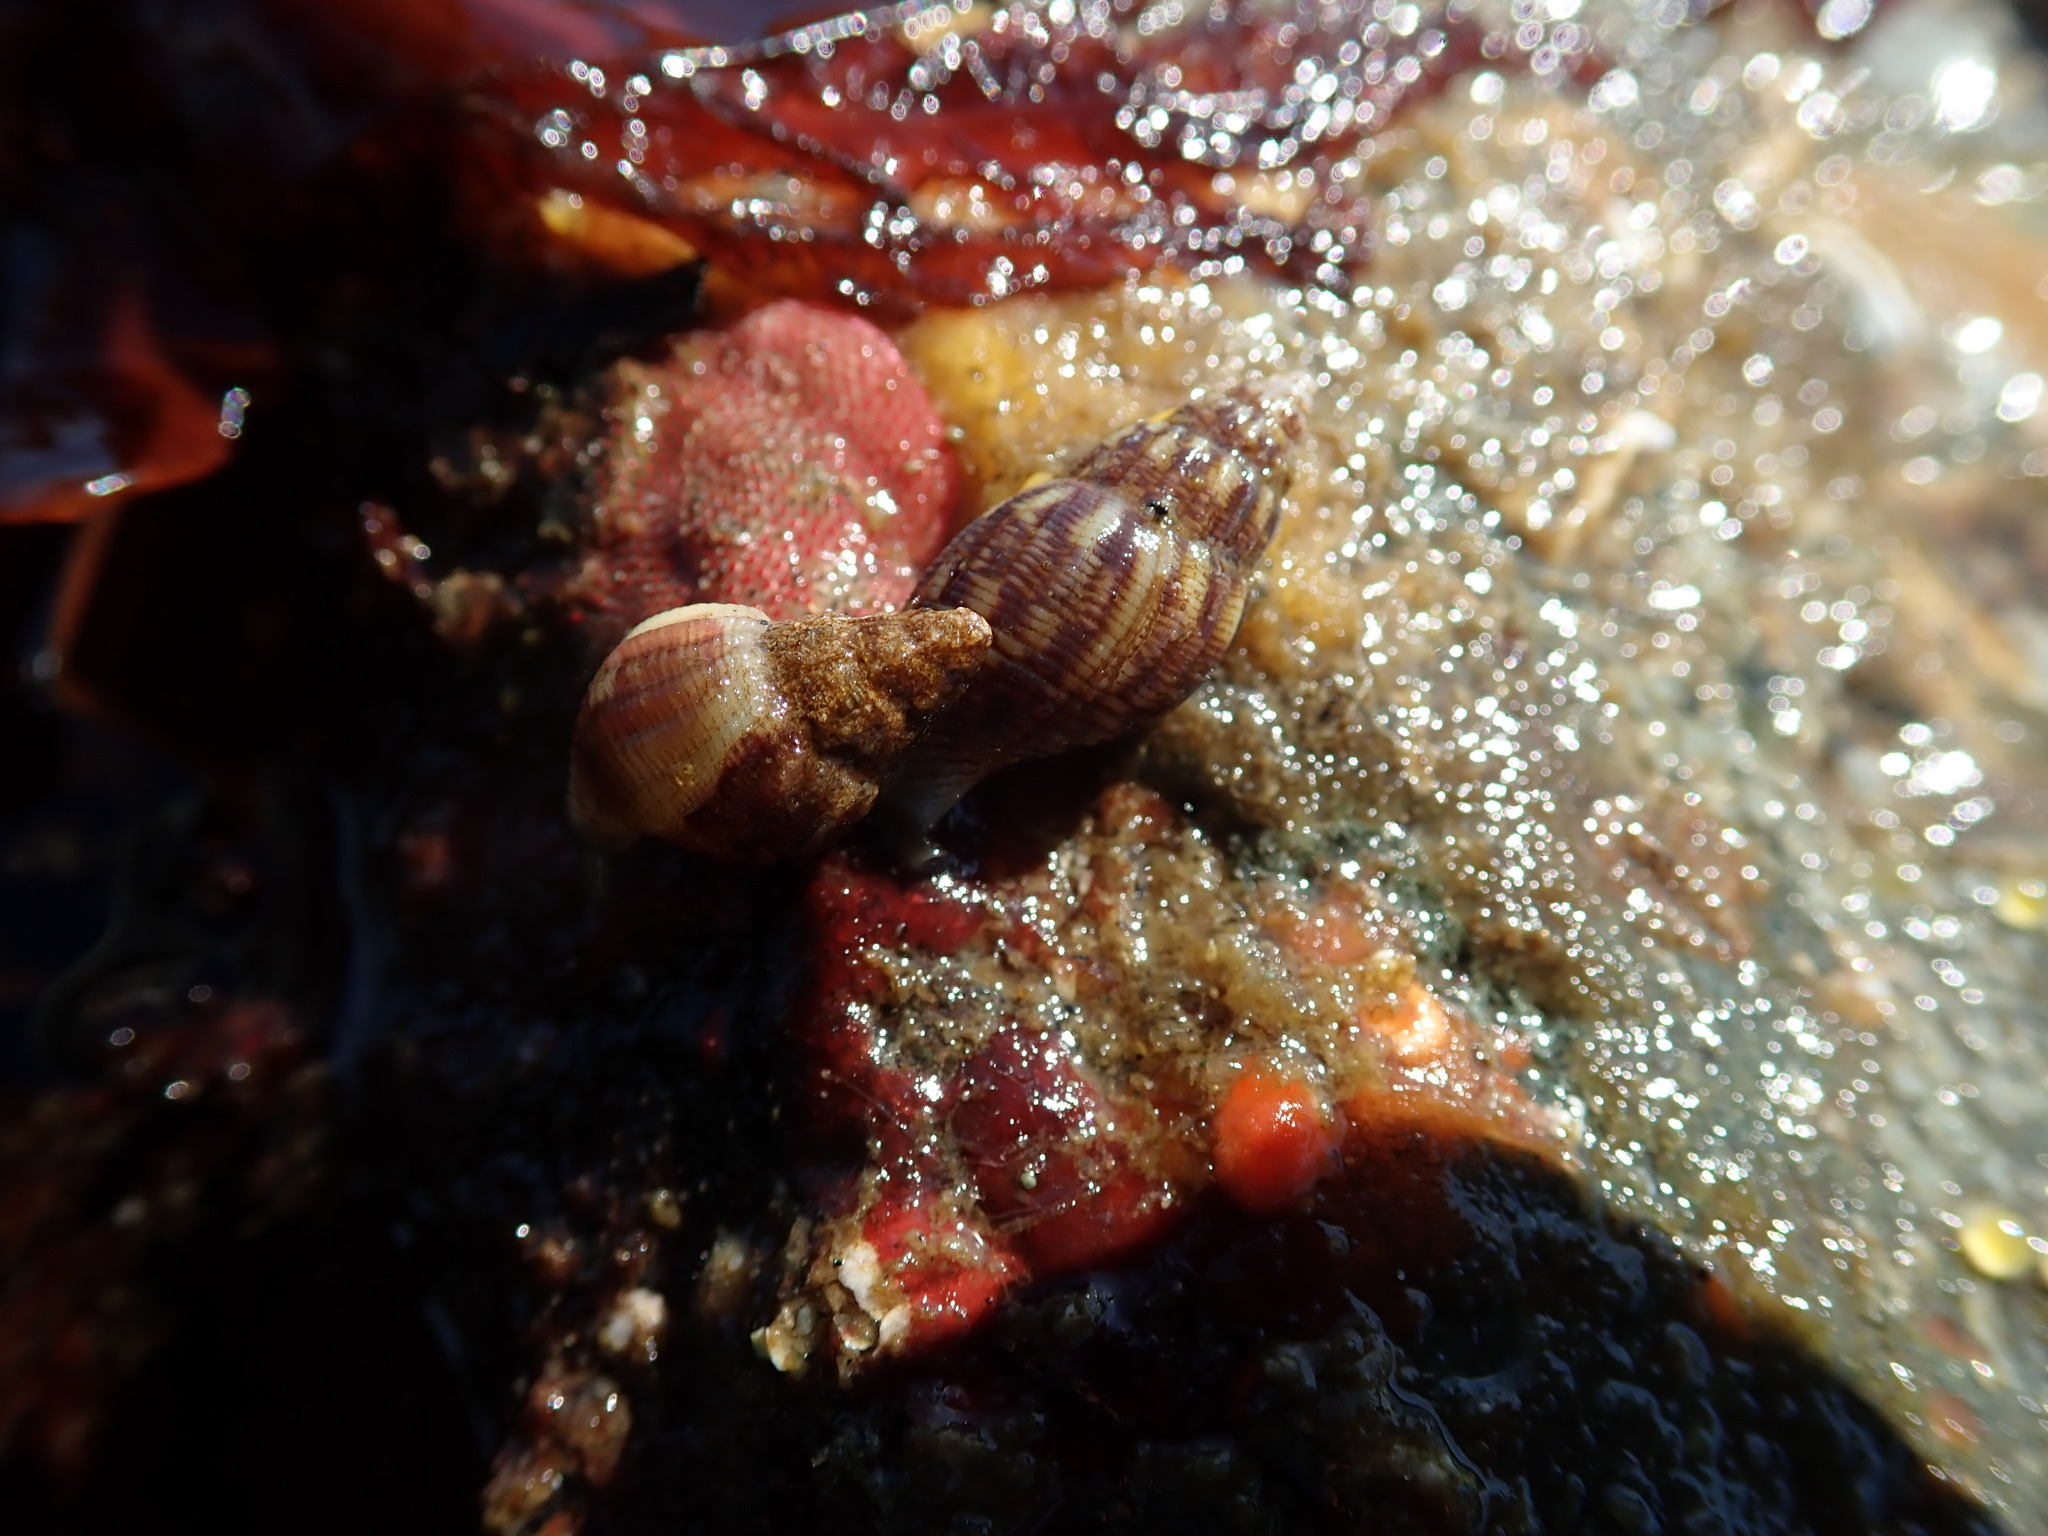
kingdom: Animalia
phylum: Mollusca
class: Gastropoda
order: Neogastropoda
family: Columbellidae
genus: Amphissa
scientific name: Amphissa columbiana
